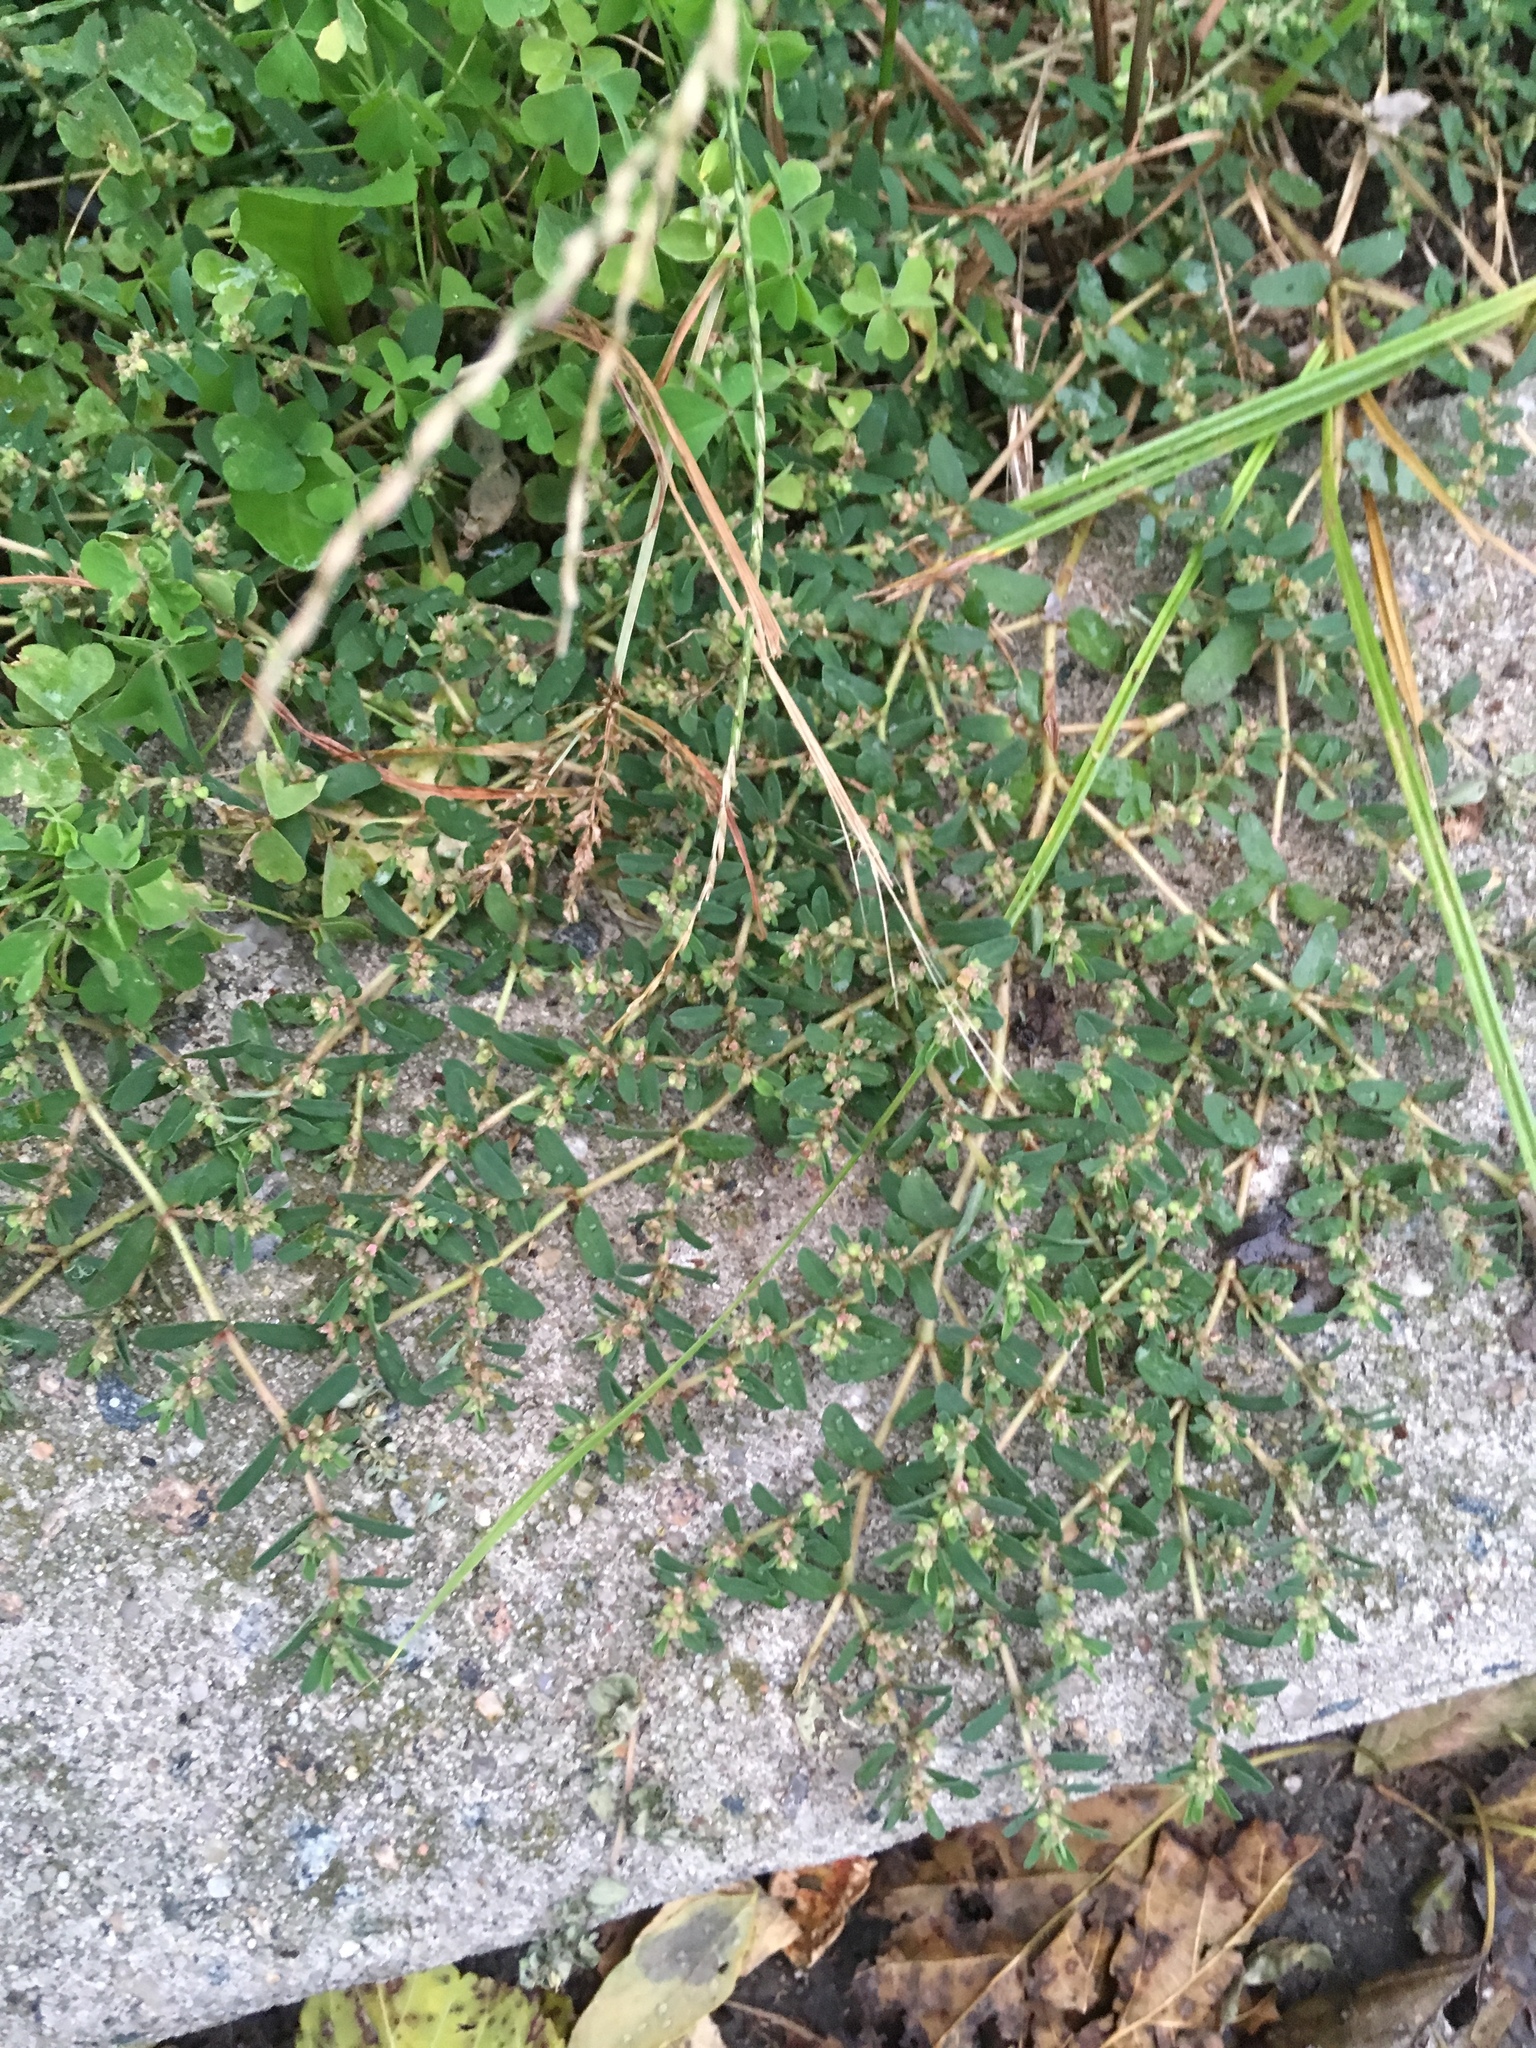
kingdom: Plantae
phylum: Tracheophyta
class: Magnoliopsida
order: Malpighiales
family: Euphorbiaceae
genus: Euphorbia
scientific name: Euphorbia maculata
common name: Spotted spurge
